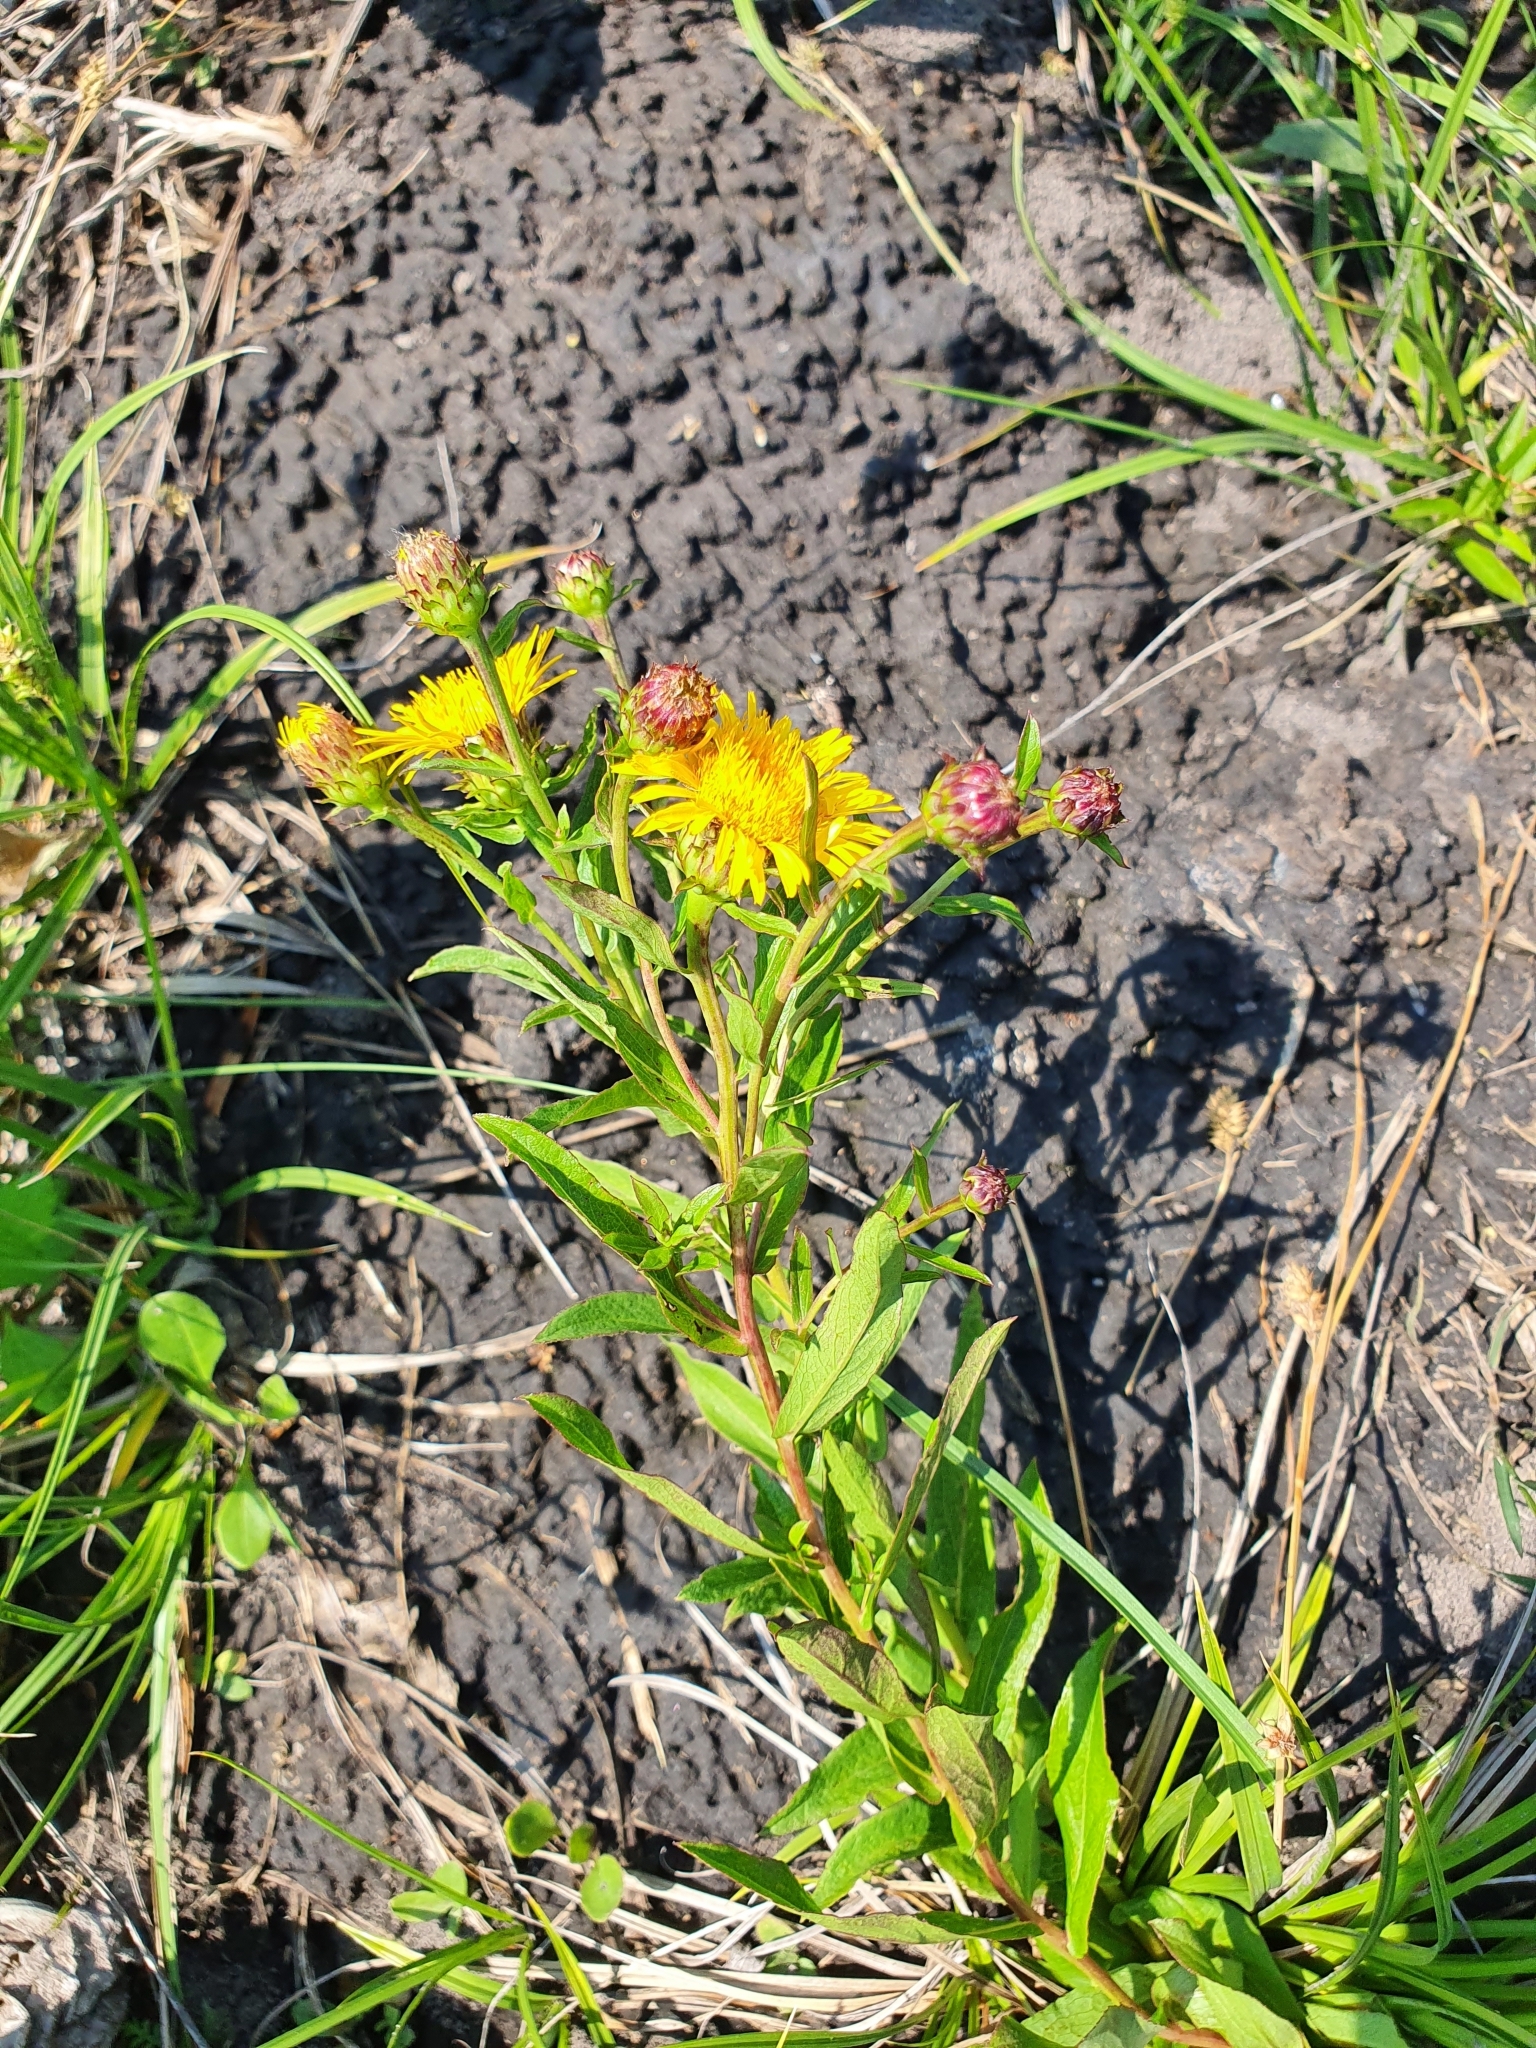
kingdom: Plantae
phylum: Tracheophyta
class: Magnoliopsida
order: Asterales
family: Asteraceae
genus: Pentanema
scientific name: Pentanema asperum
